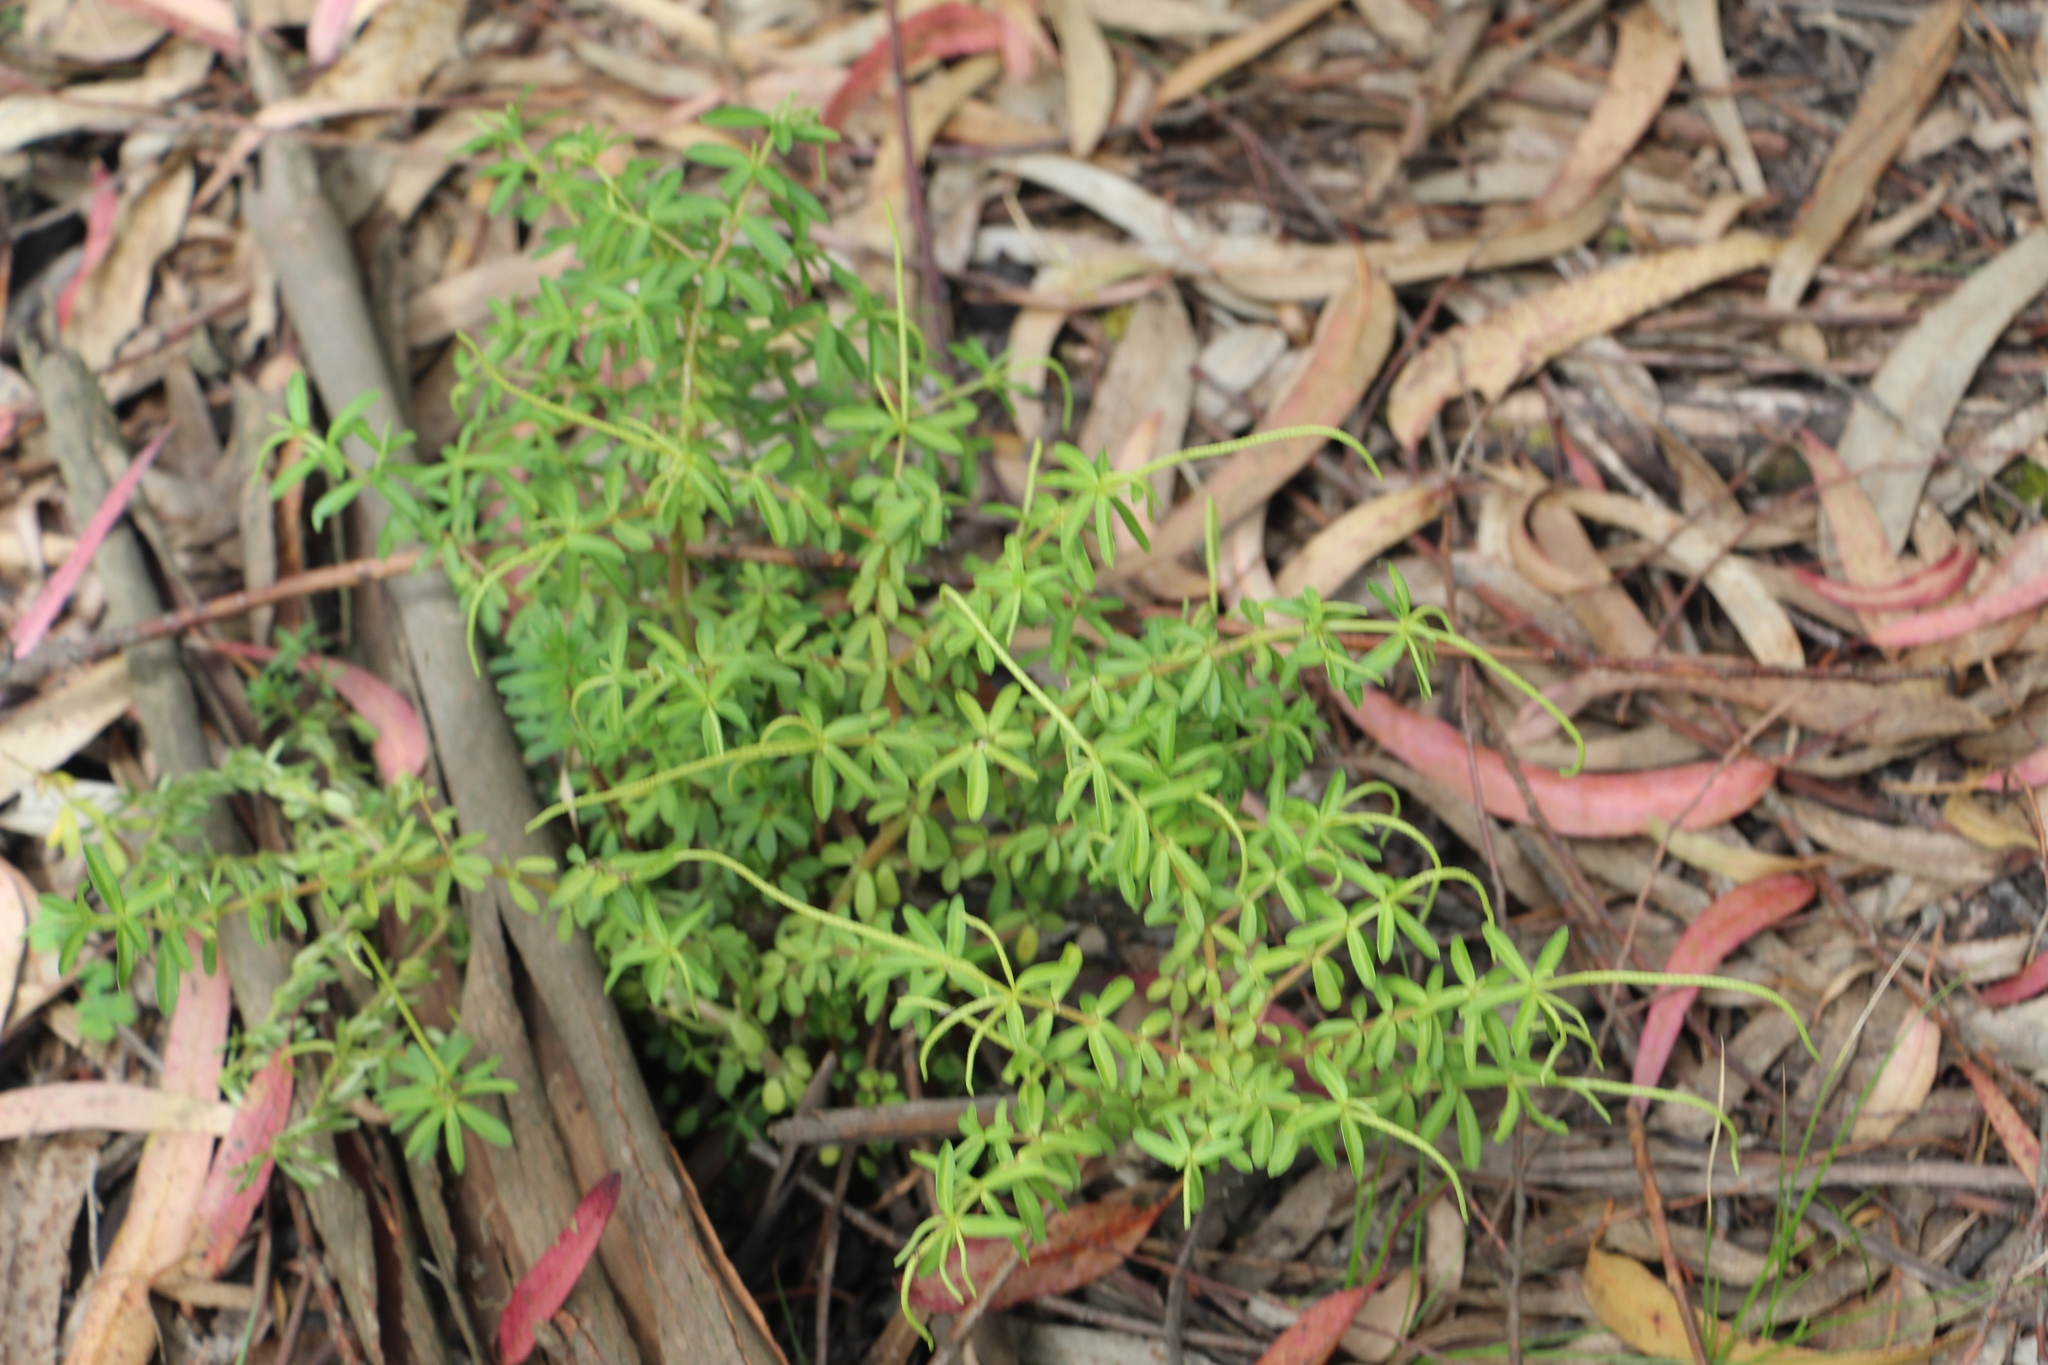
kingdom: Plantae
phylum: Tracheophyta
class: Magnoliopsida
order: Piperales
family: Piperaceae
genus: Peperomia
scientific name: Peperomia ilaloensis
